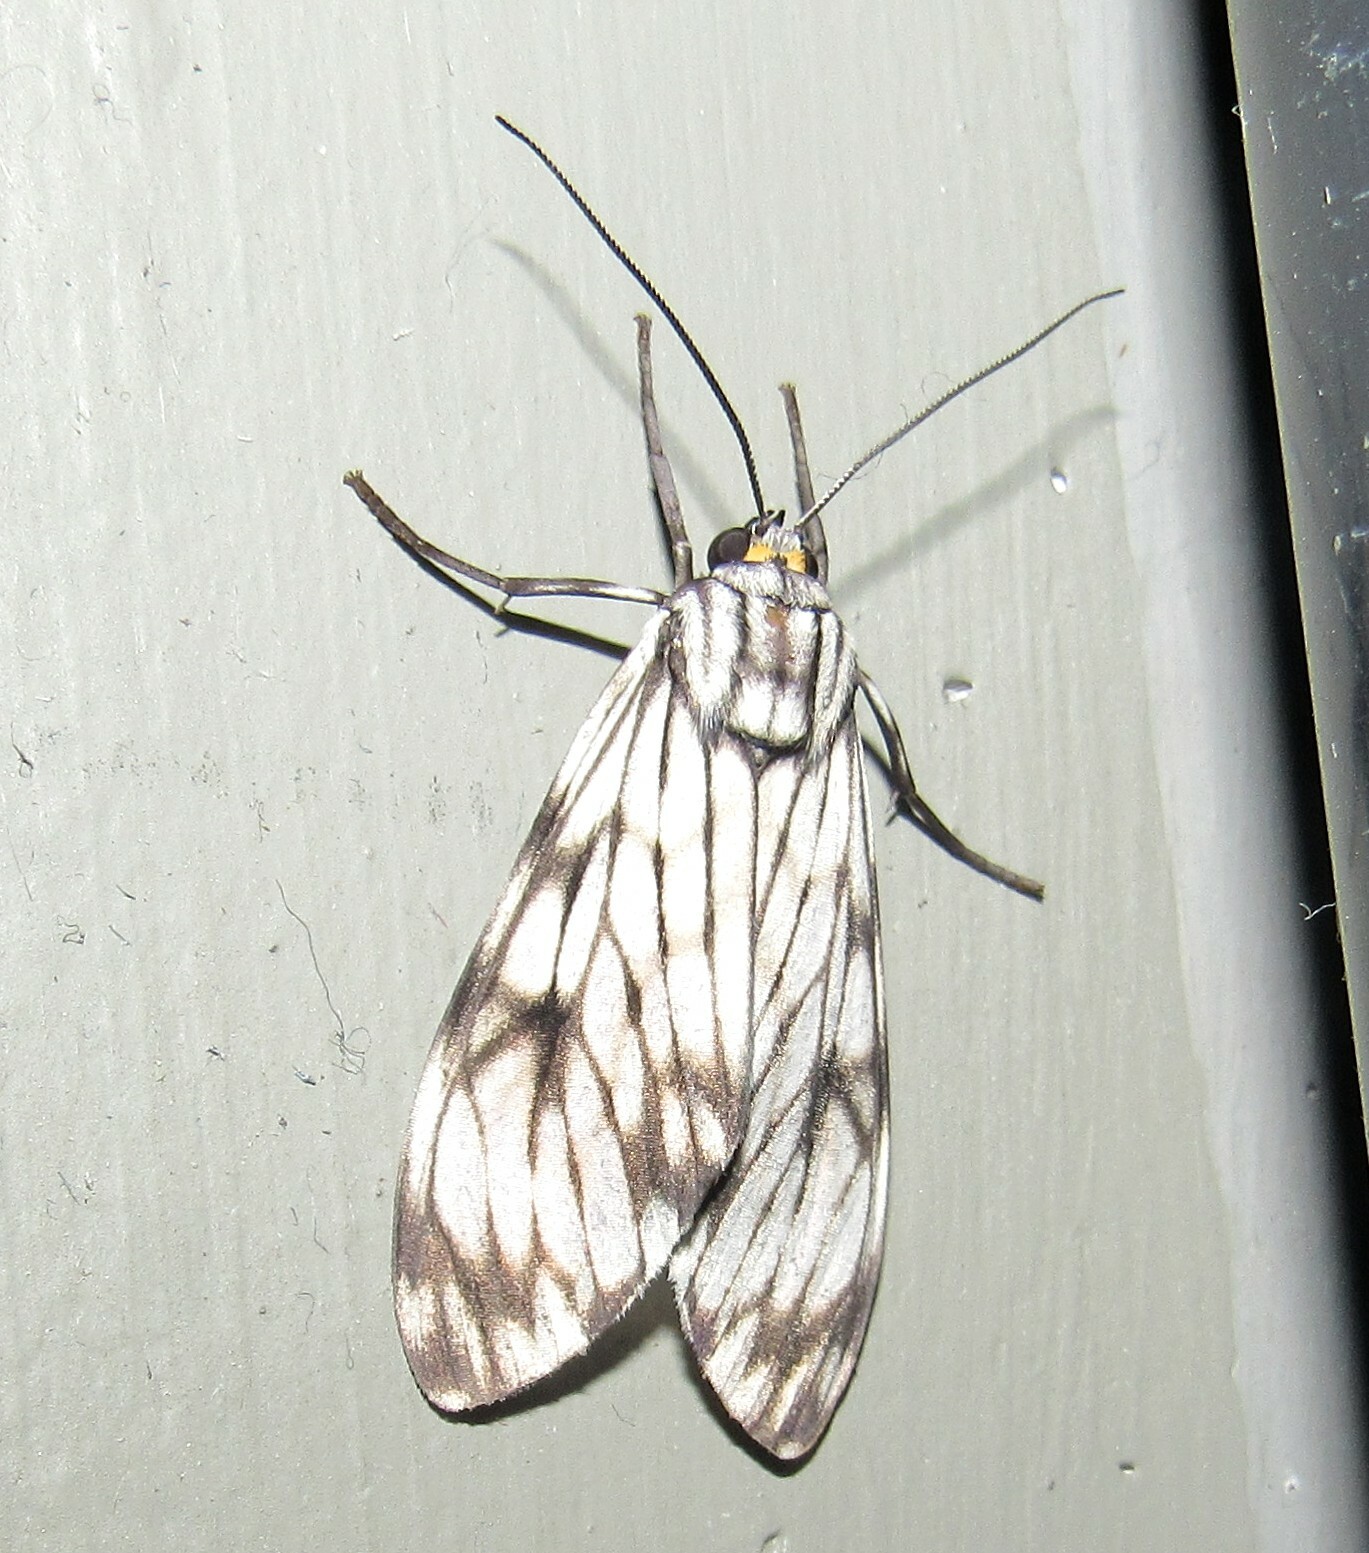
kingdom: Animalia
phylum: Arthropoda
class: Insecta
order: Lepidoptera
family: Erebidae
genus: Theages
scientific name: Theages xantura
